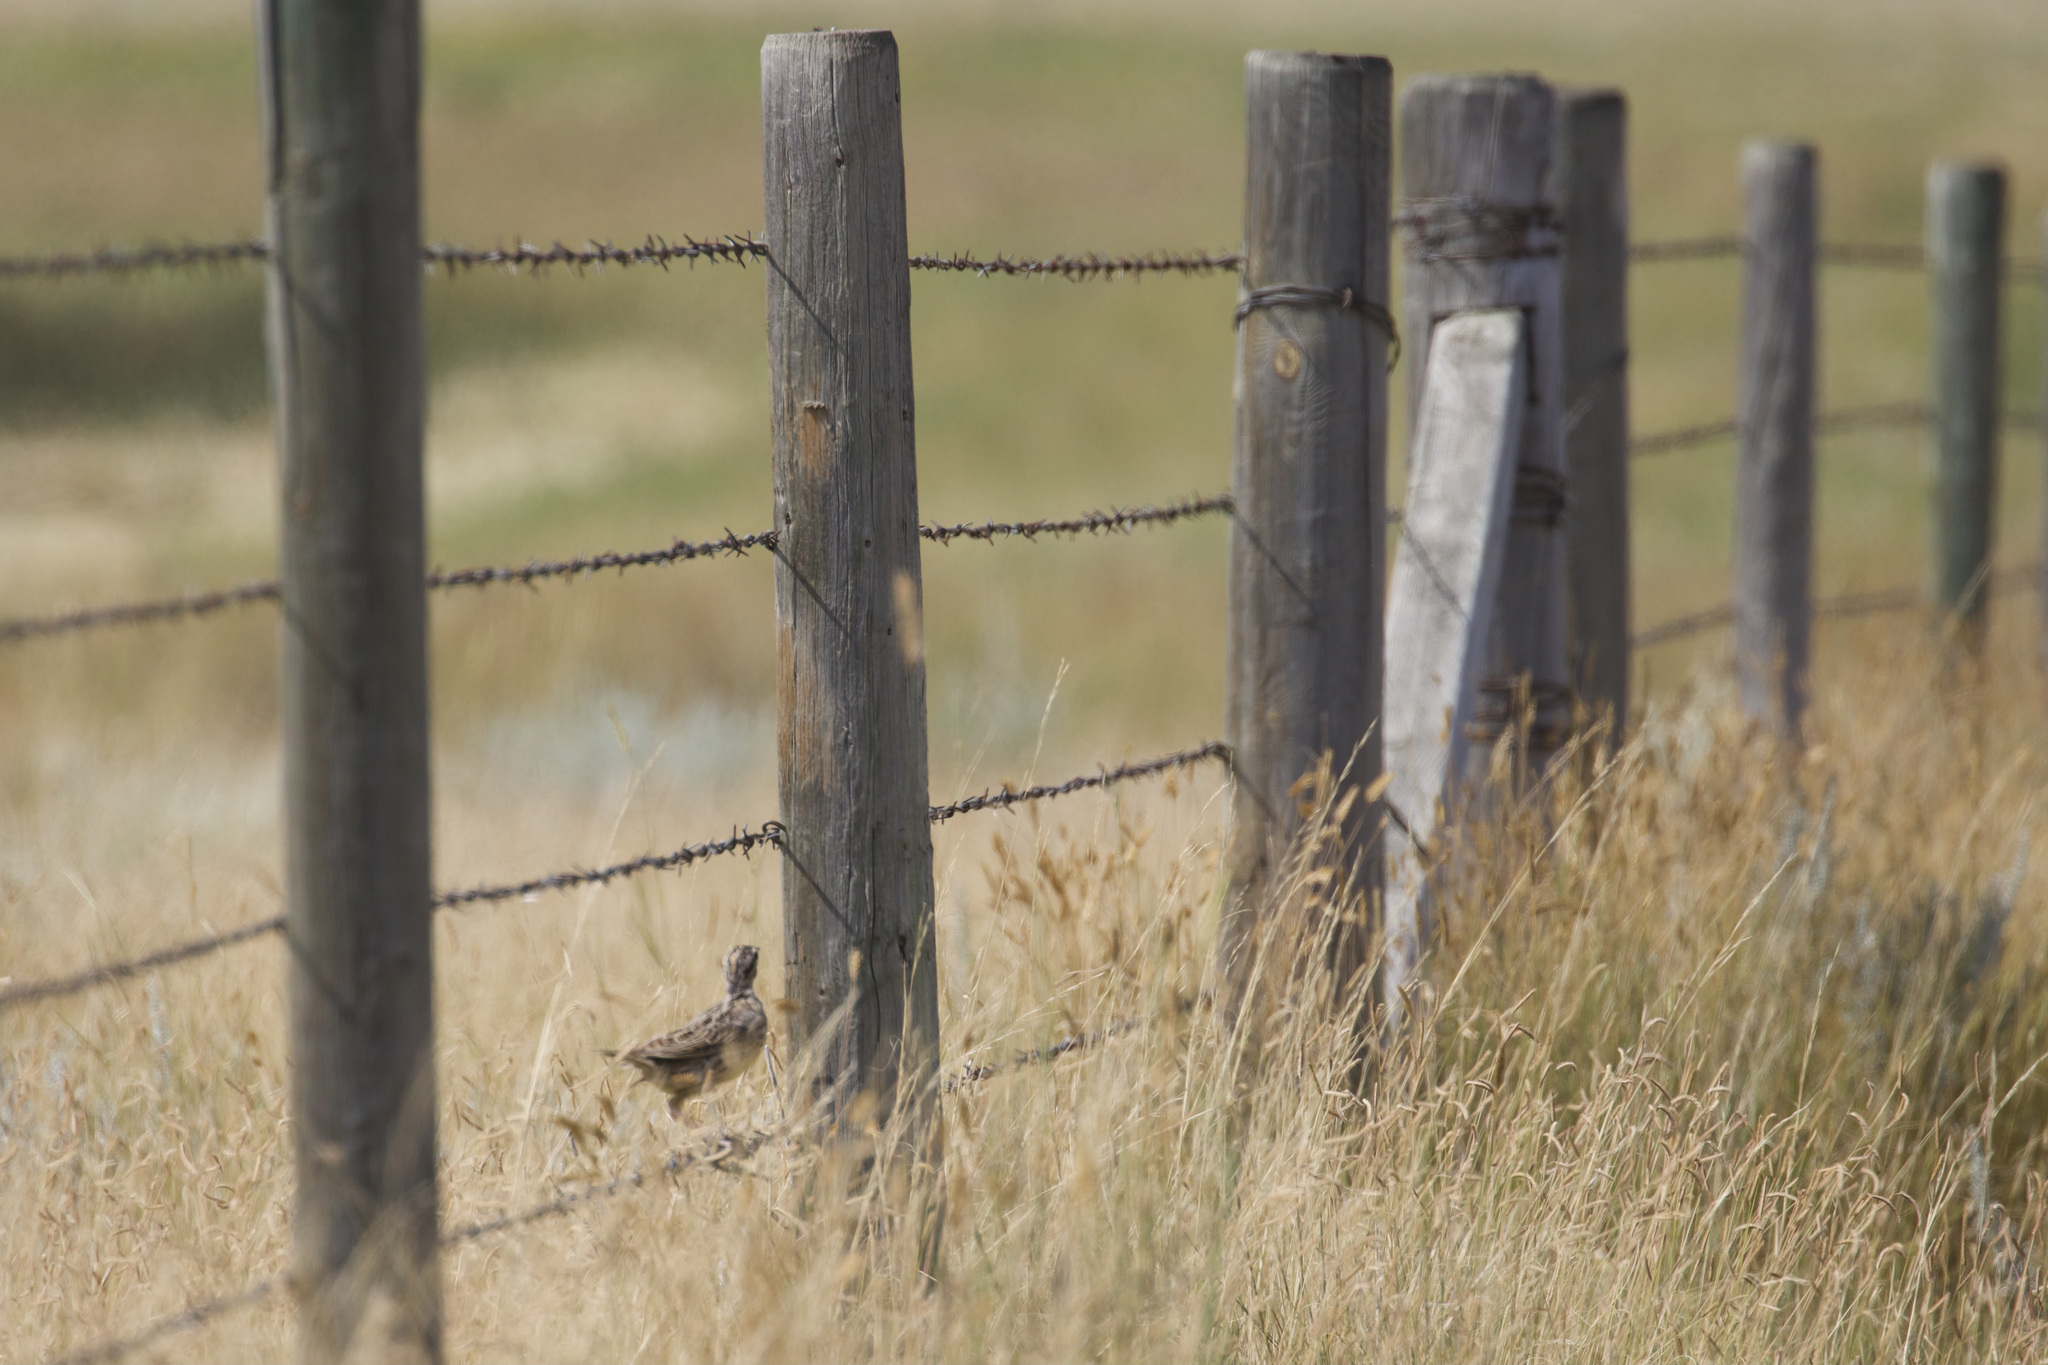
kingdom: Animalia
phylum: Chordata
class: Aves
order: Passeriformes
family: Icteridae
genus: Sturnella
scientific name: Sturnella neglecta
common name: Western meadowlark
